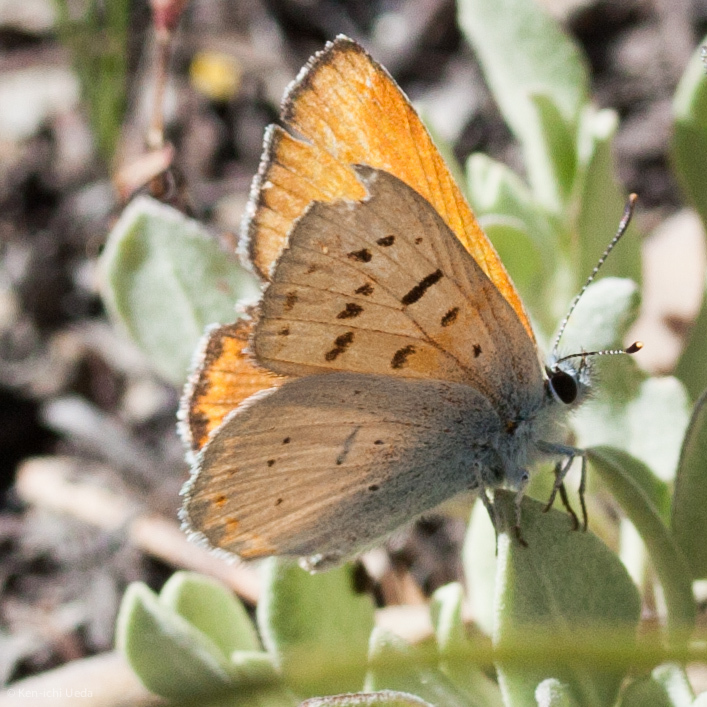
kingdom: Animalia
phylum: Arthropoda
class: Insecta
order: Lepidoptera
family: Lycaenidae
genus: Tharsalea
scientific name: Tharsalea rubidus
